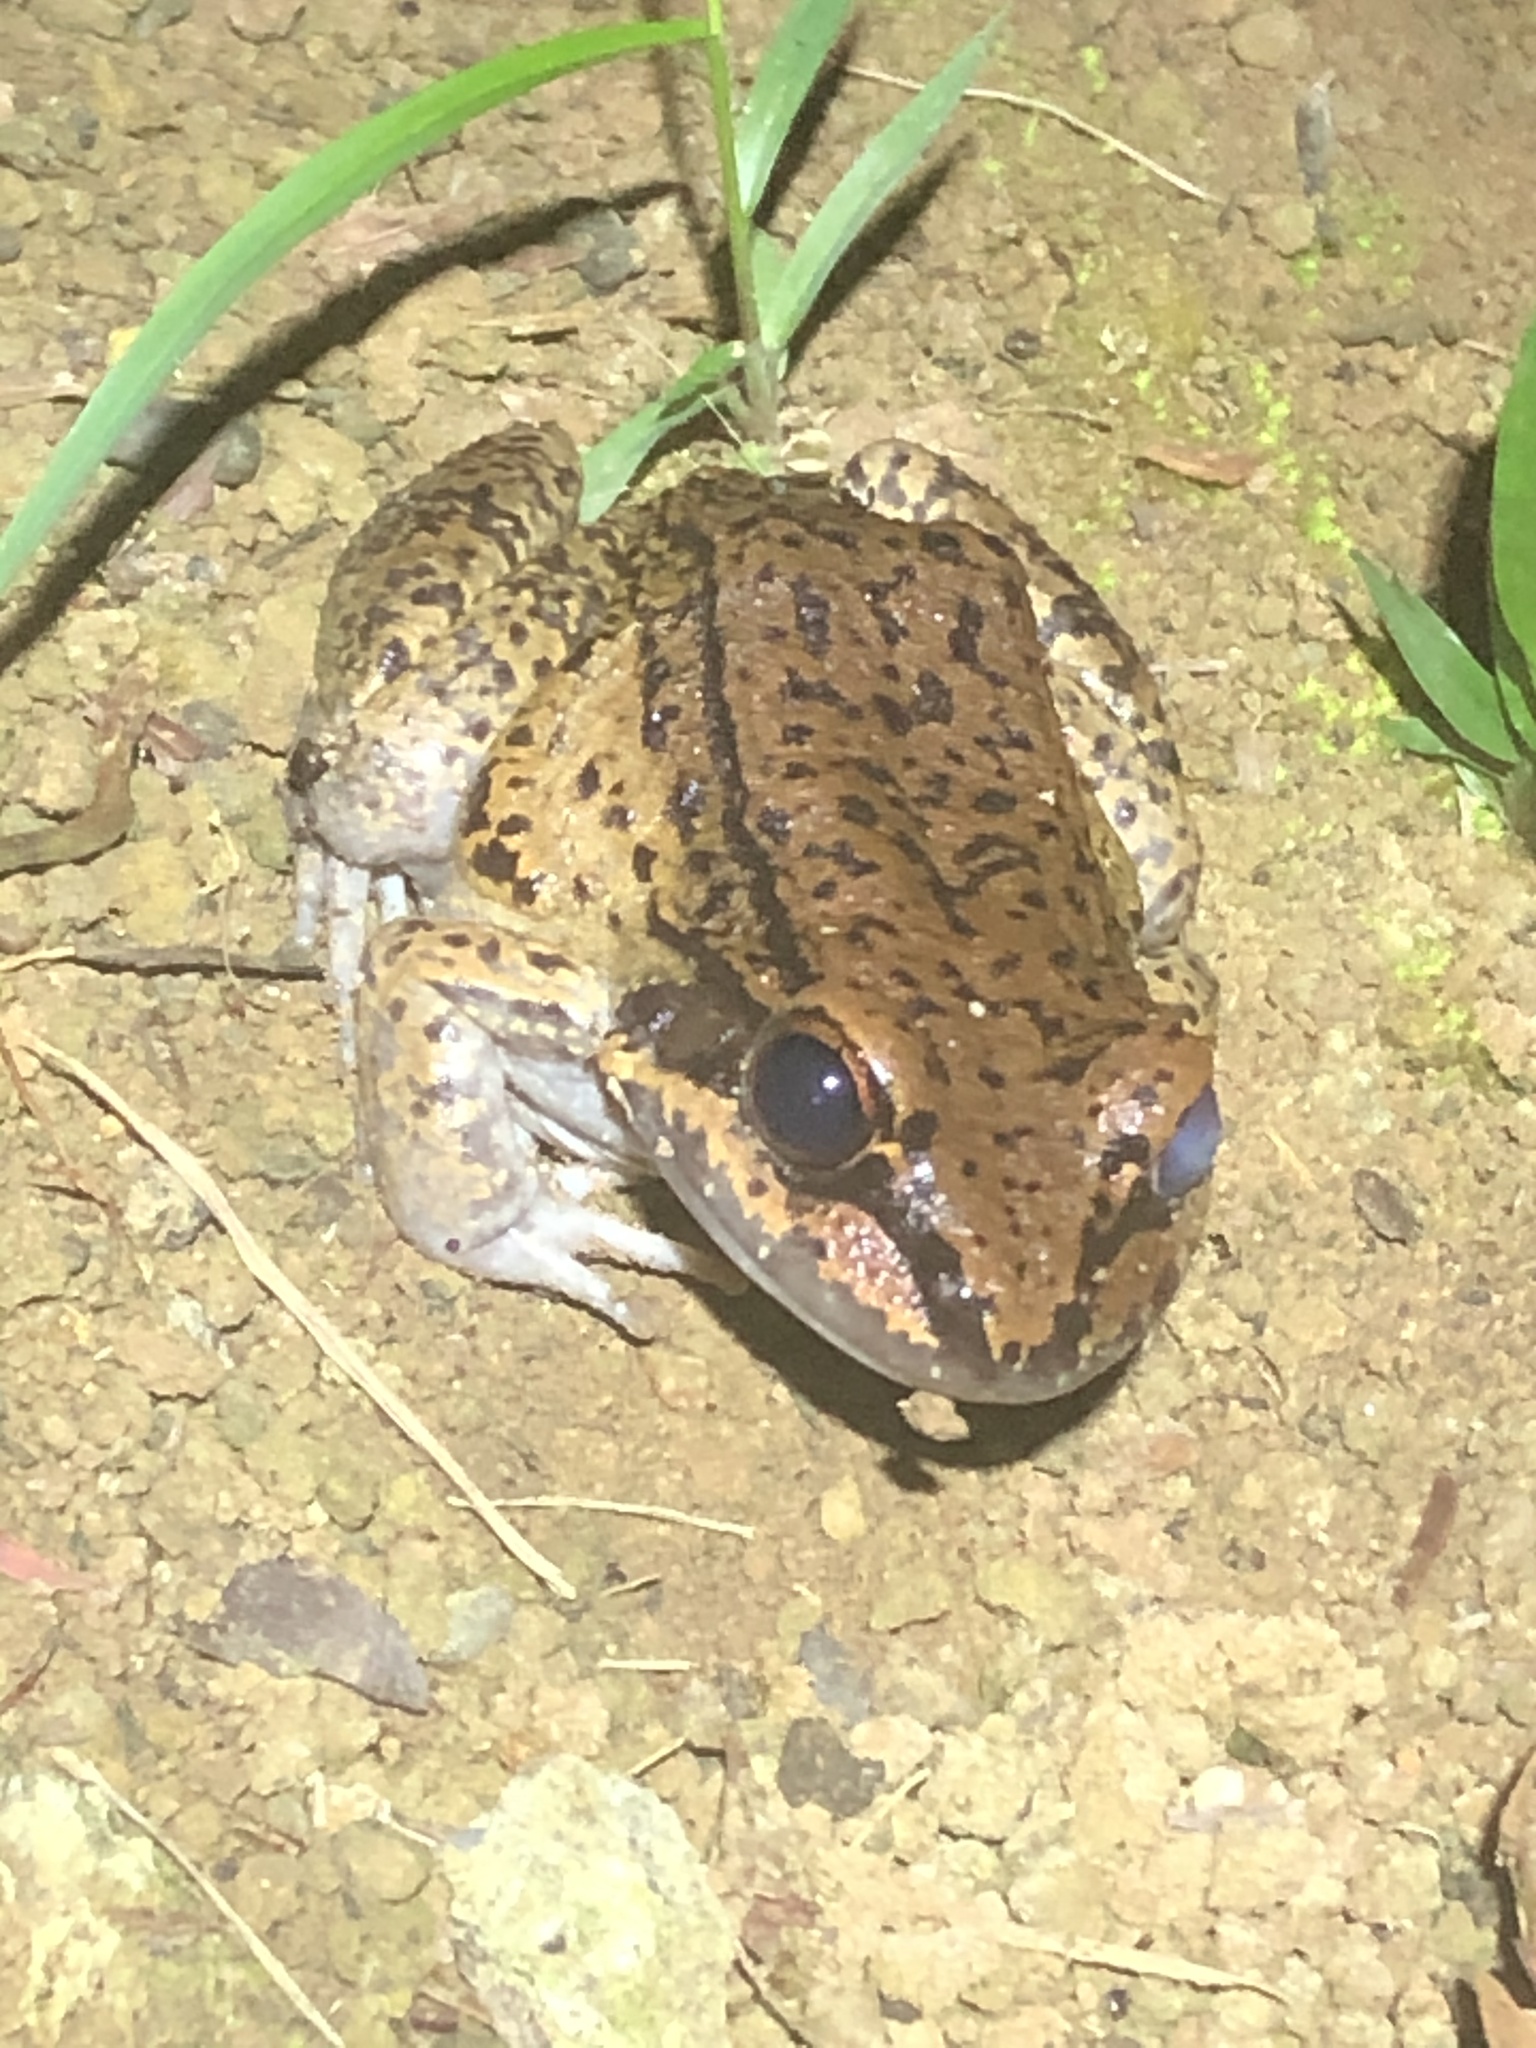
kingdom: Animalia
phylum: Chordata
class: Amphibia
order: Anura
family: Leptodactylidae
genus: Leptodactylus
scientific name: Leptodactylus rhodonotus
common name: Peru white-lipped frog
